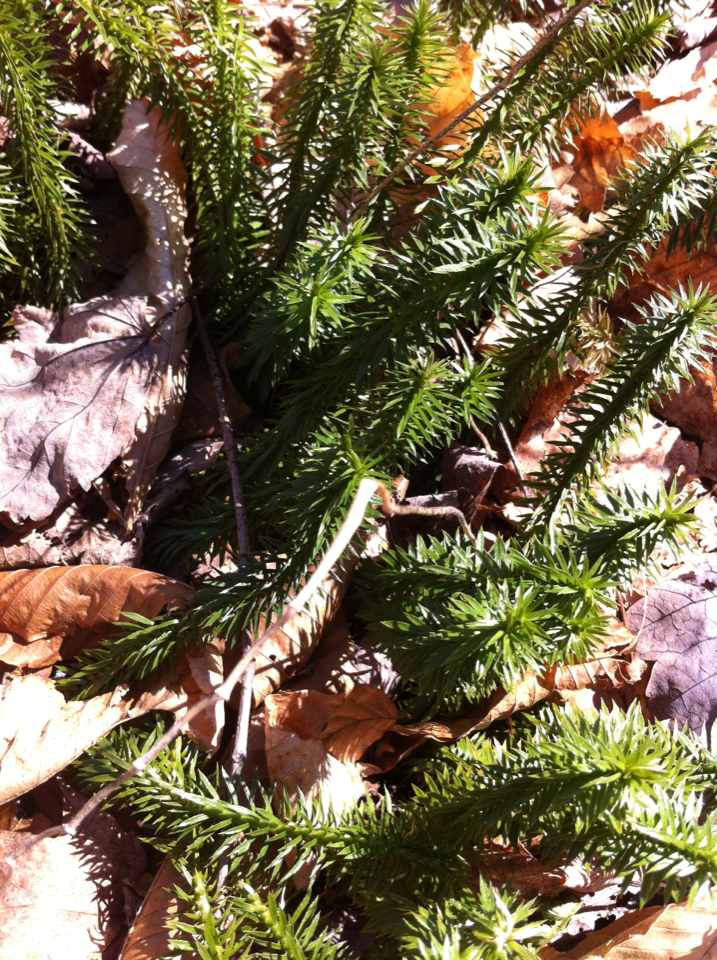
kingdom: Plantae
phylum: Tracheophyta
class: Lycopodiopsida
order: Lycopodiales
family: Lycopodiaceae
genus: Huperzia
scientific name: Huperzia lucidula
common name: Shining clubmoss
